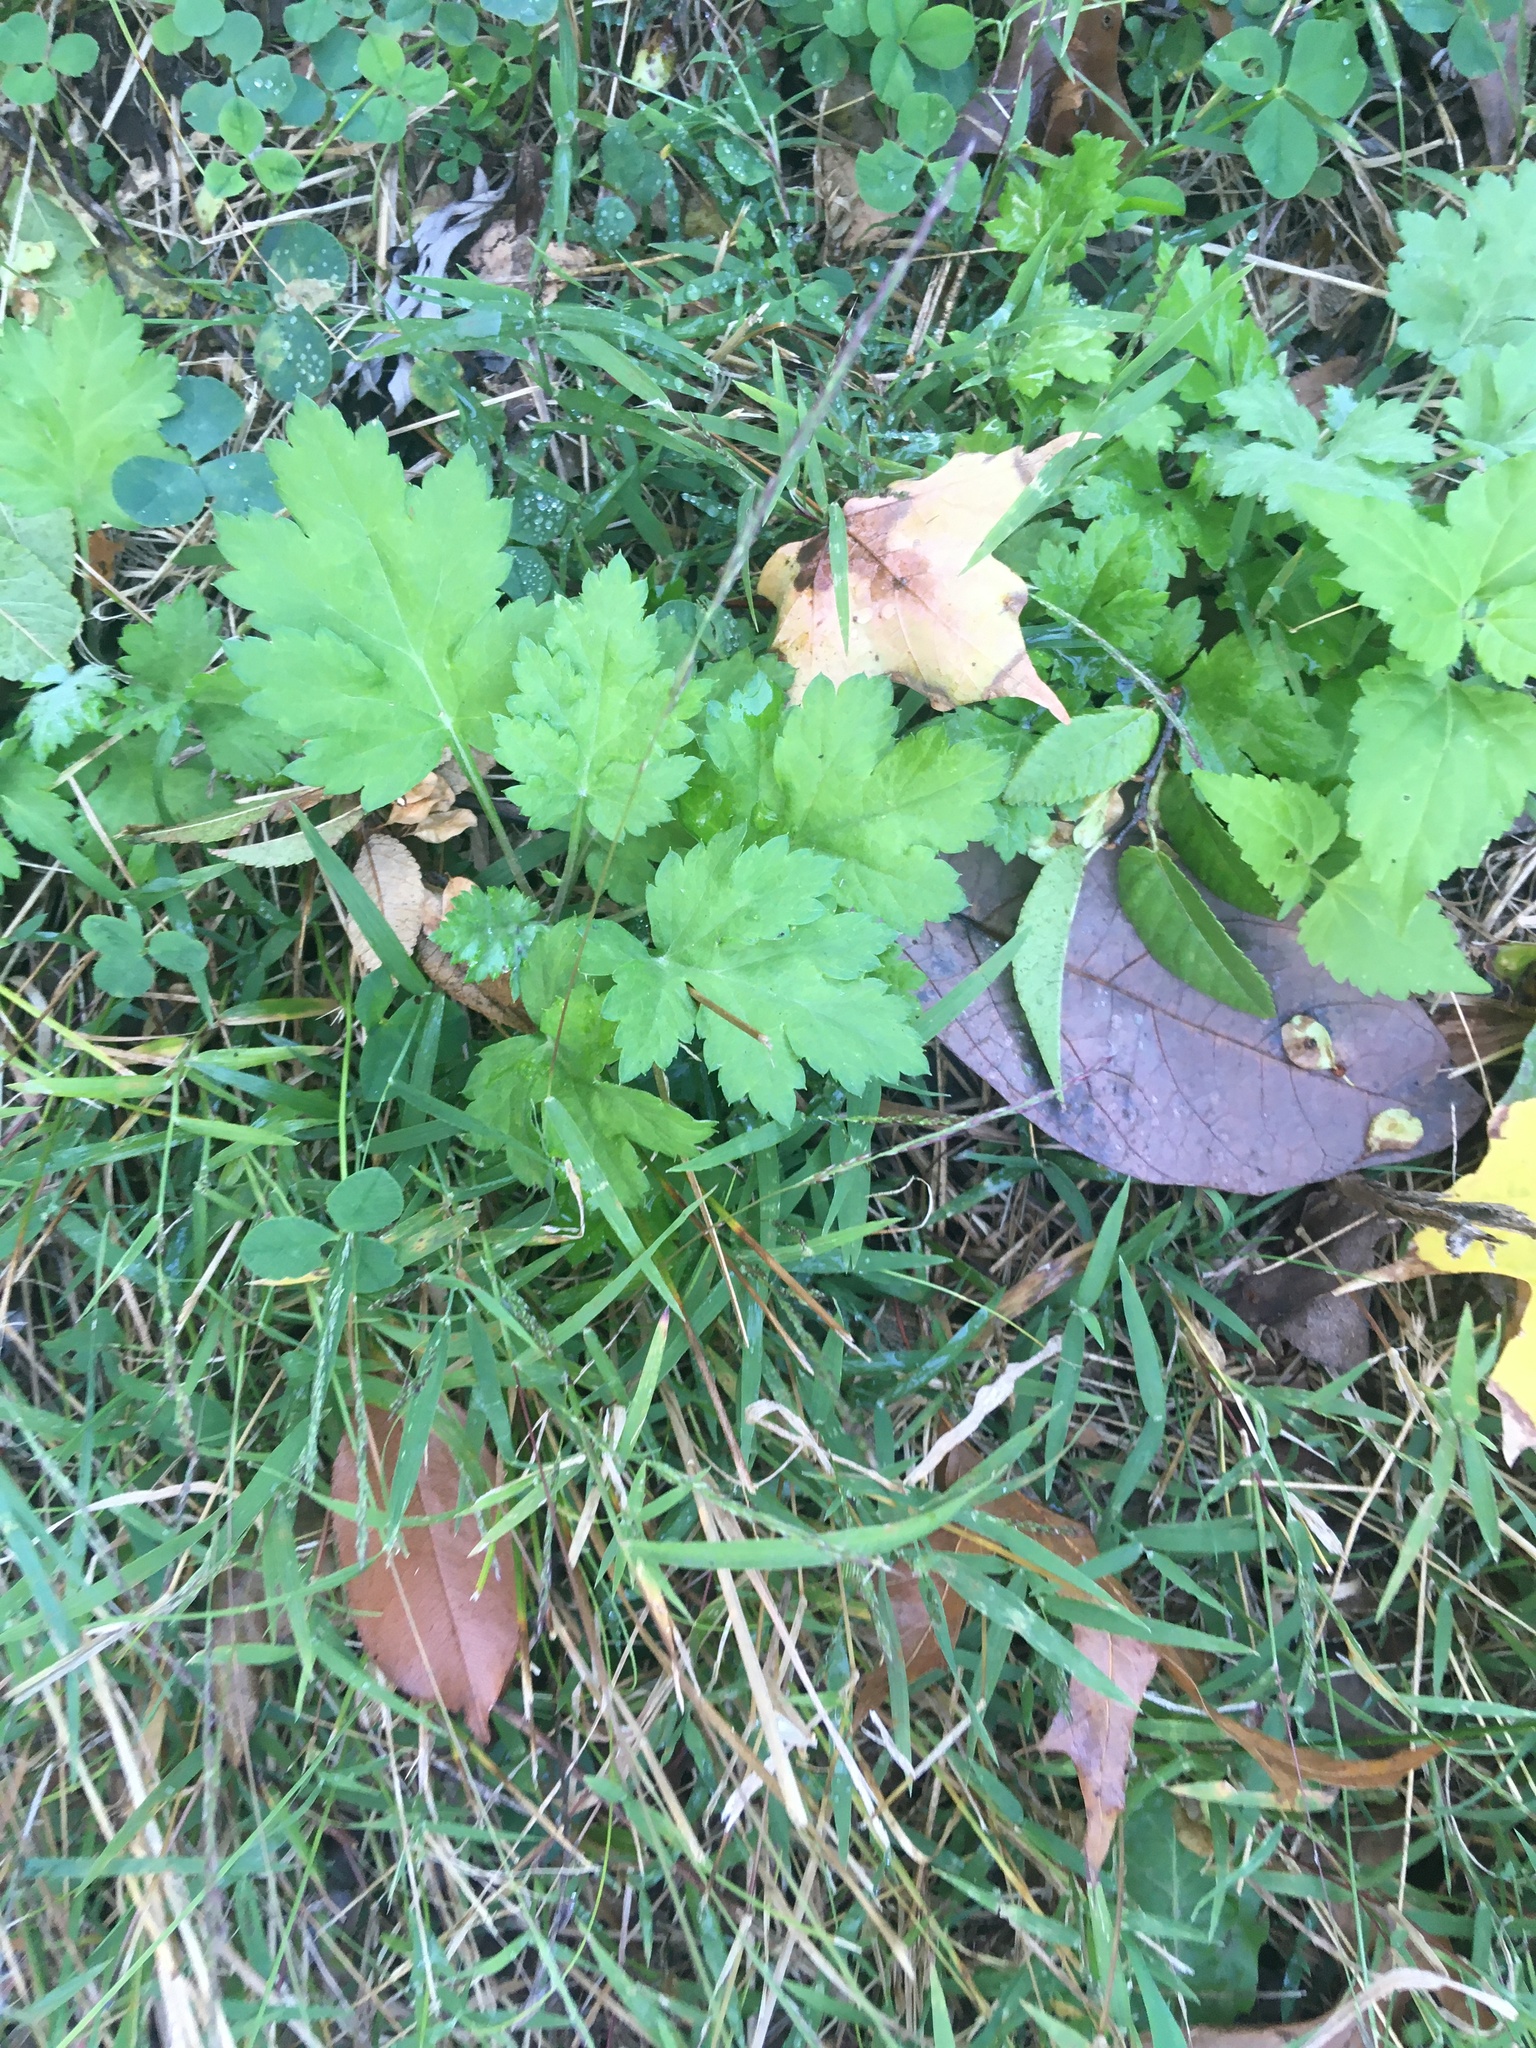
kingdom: Plantae
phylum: Tracheophyta
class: Magnoliopsida
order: Asterales
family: Asteraceae
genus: Artemisia
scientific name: Artemisia vulgaris
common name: Mugwort
